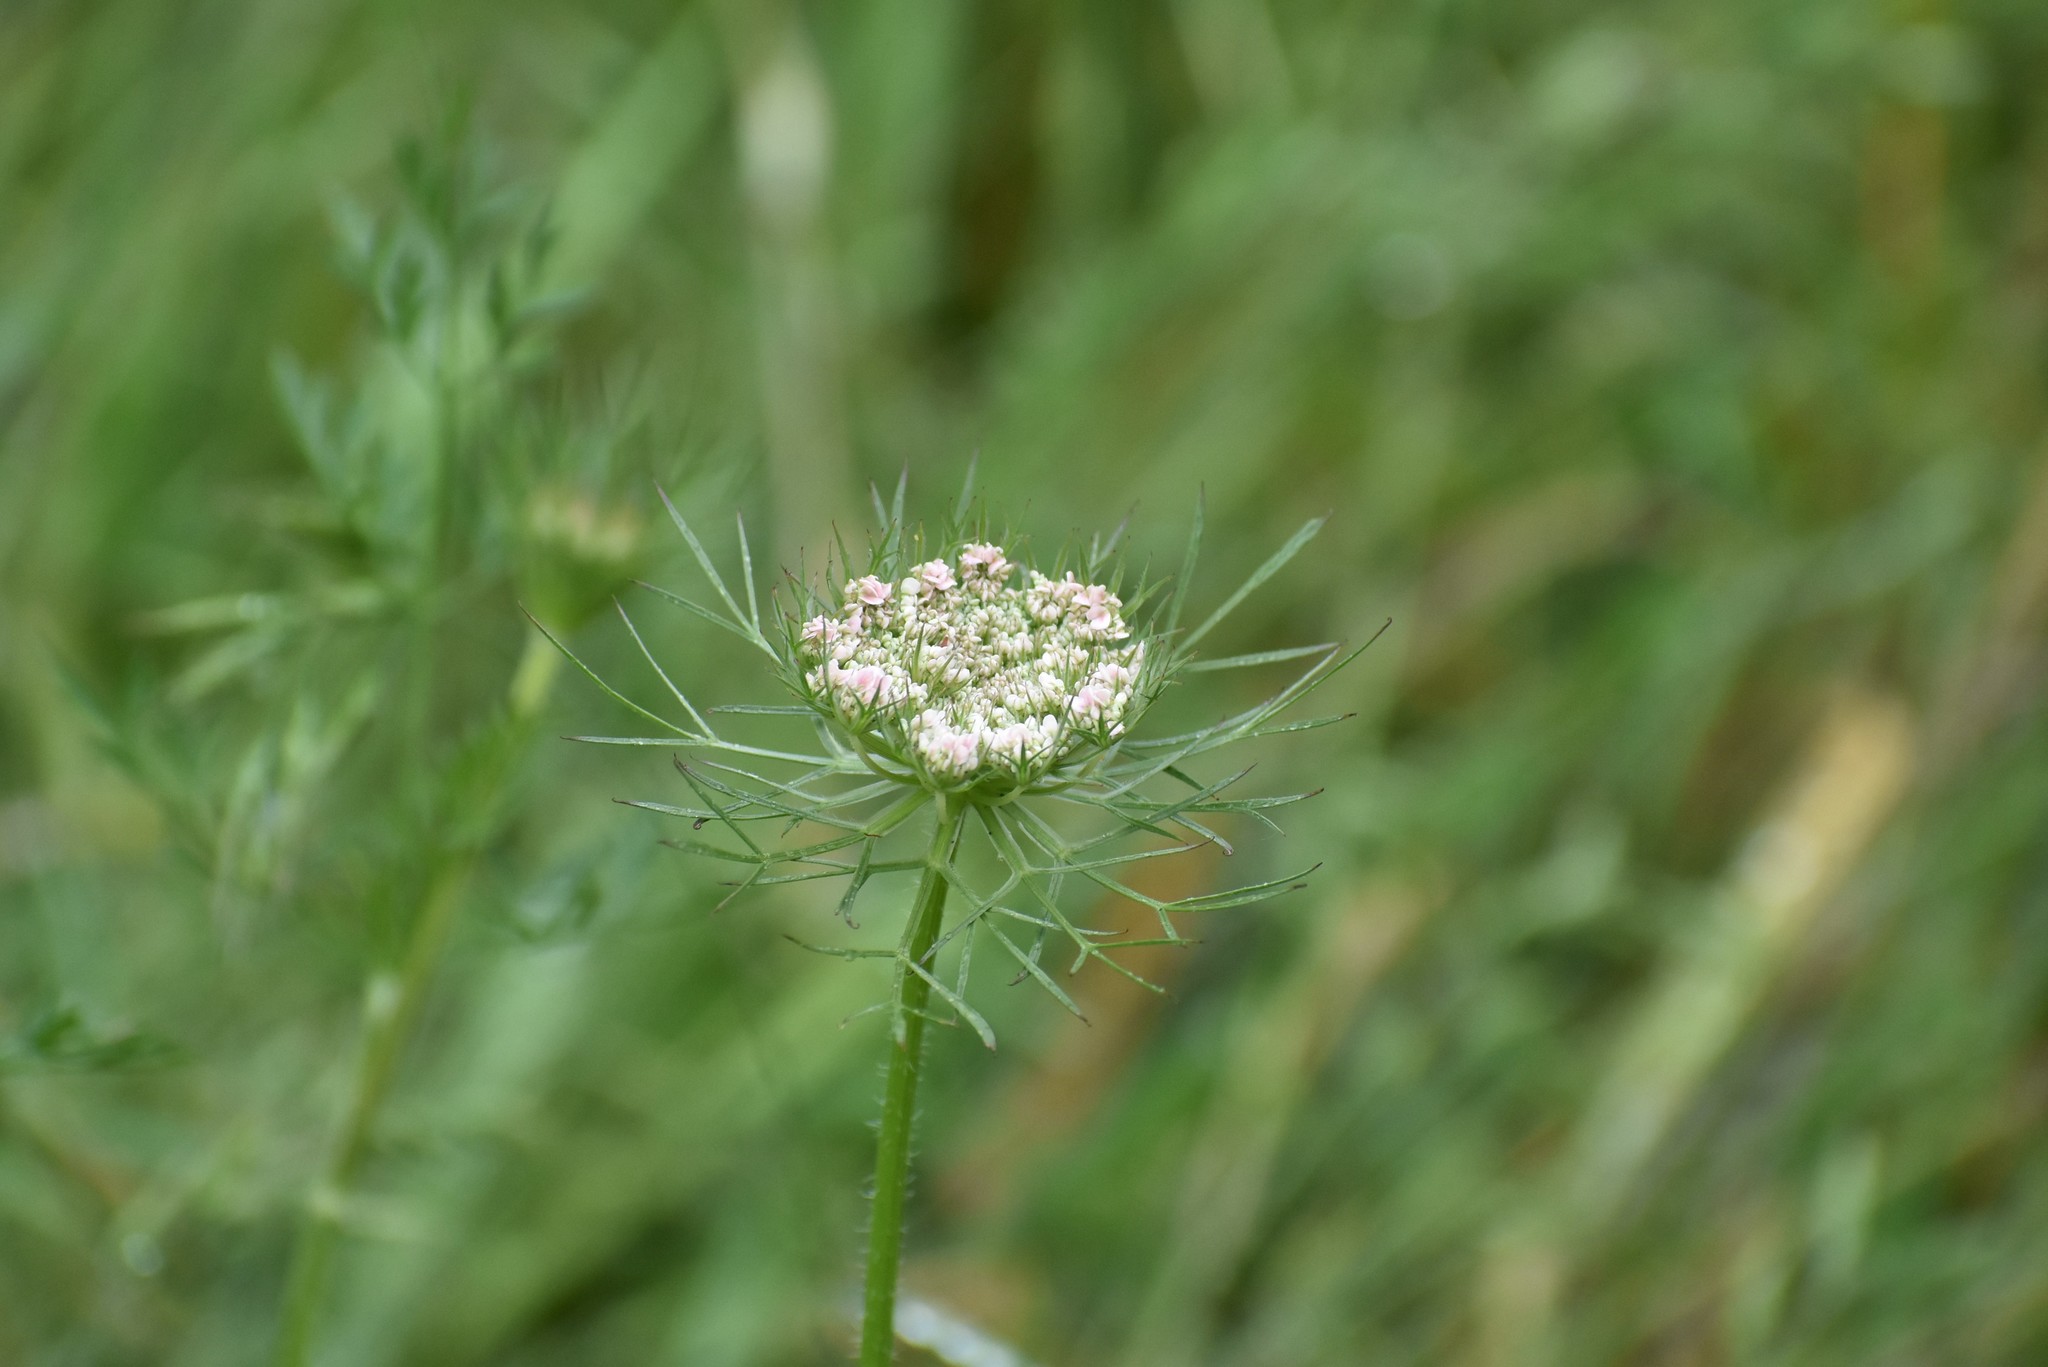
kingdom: Plantae
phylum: Tracheophyta
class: Magnoliopsida
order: Apiales
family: Apiaceae
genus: Daucus
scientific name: Daucus carota
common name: Wild carrot
